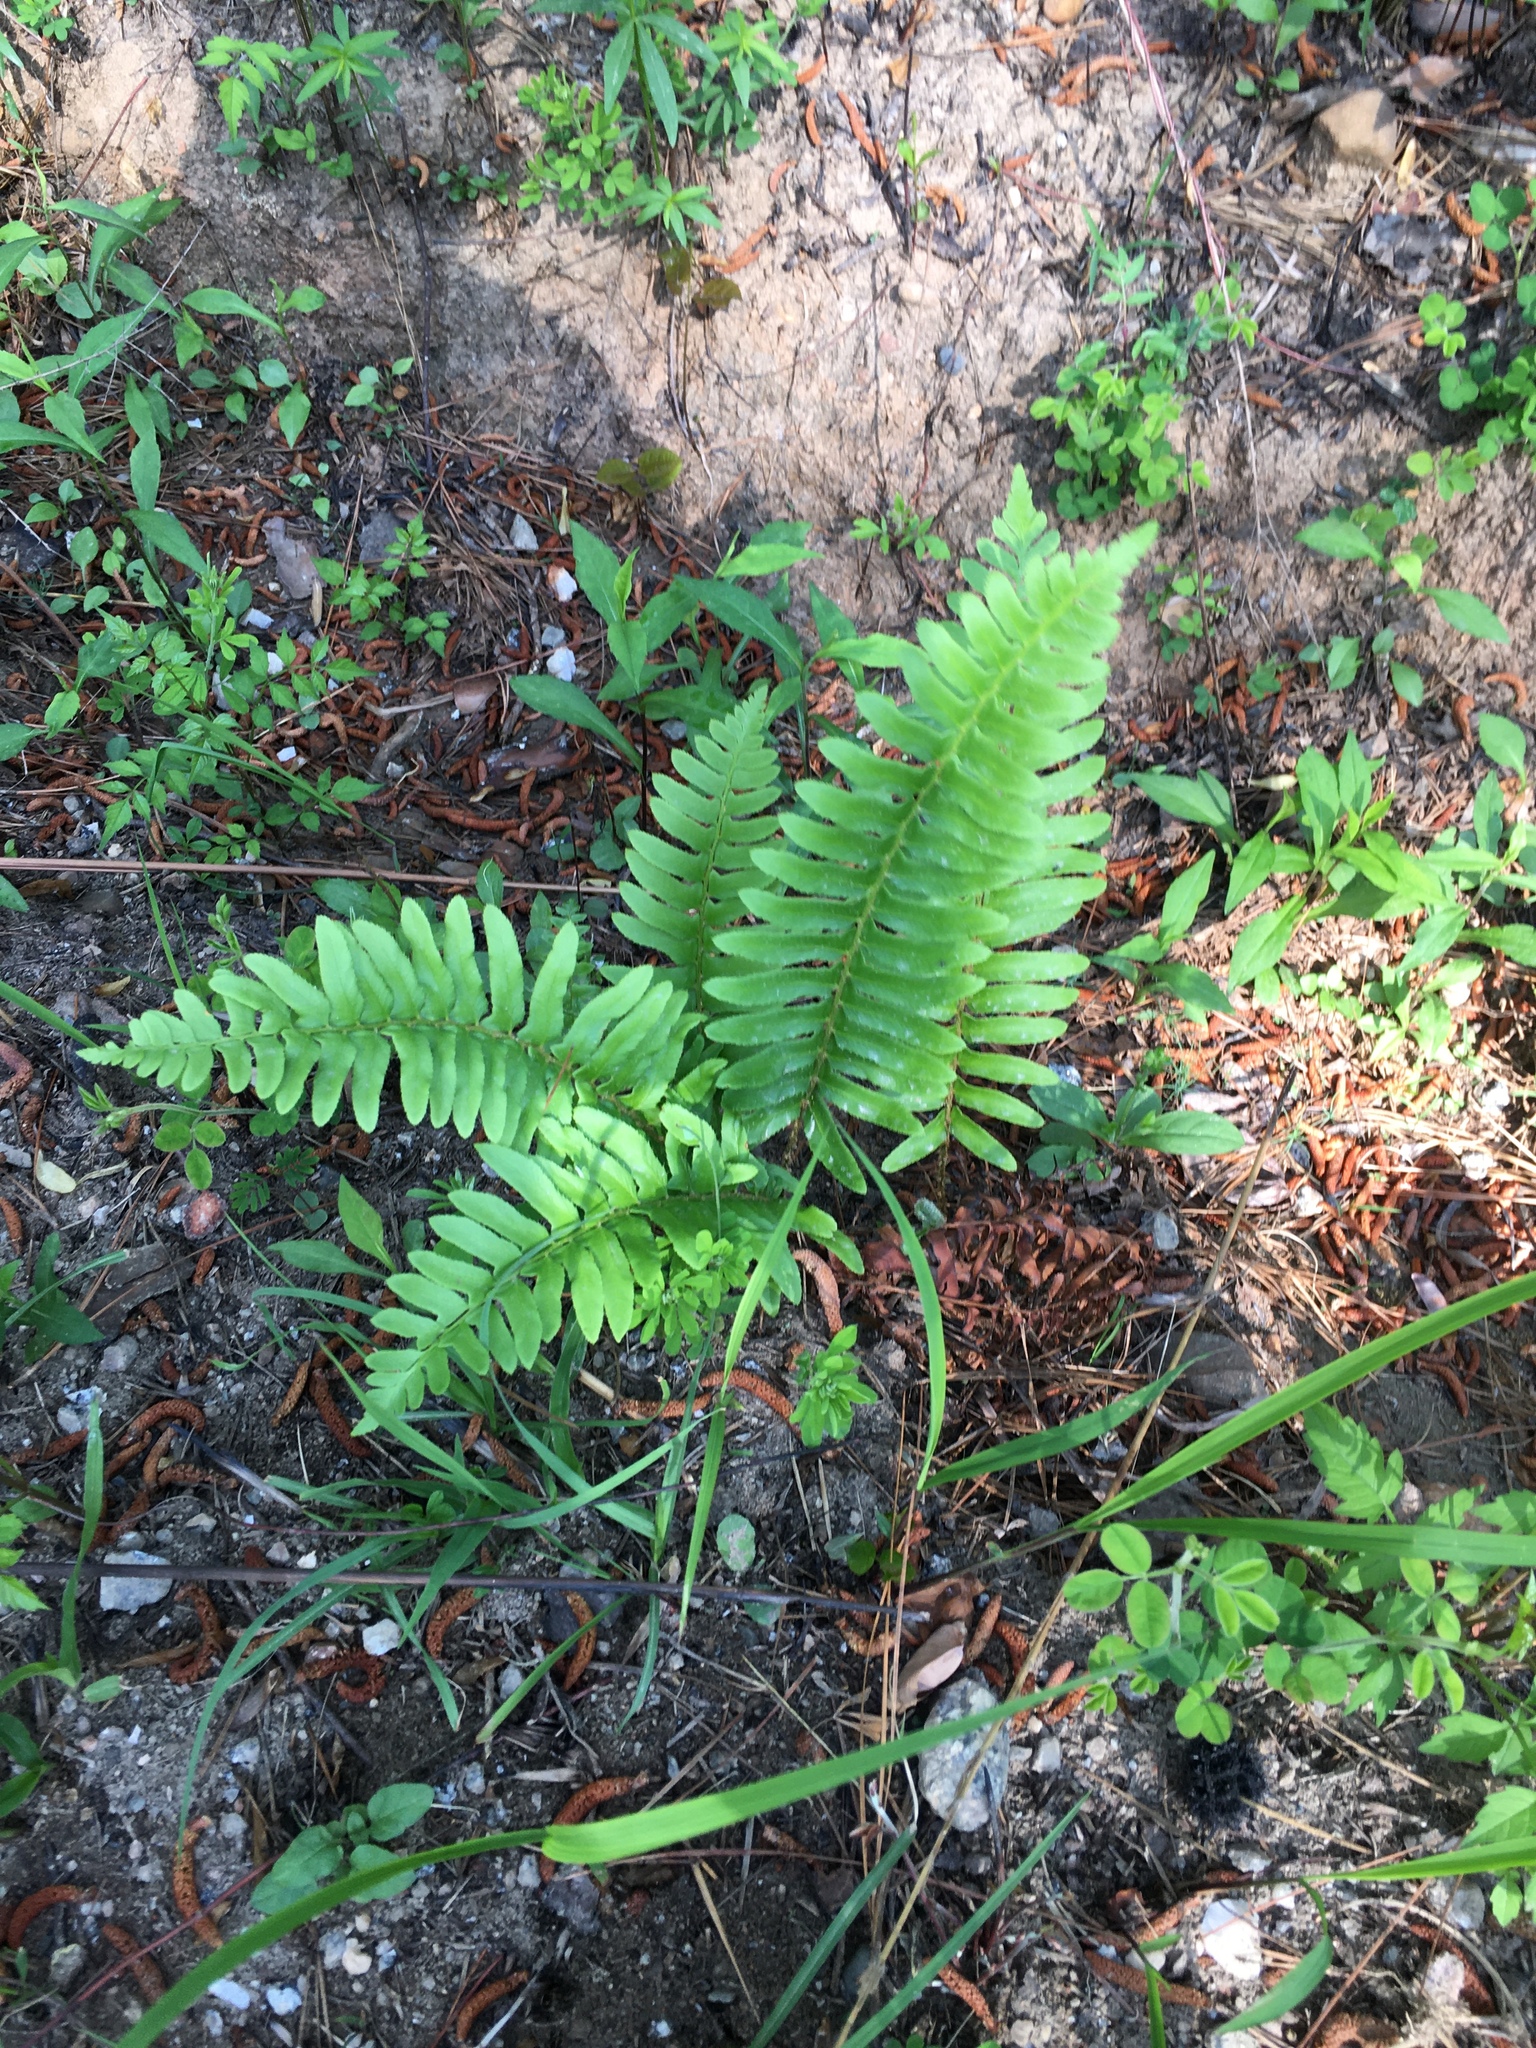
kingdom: Plantae
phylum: Tracheophyta
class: Polypodiopsida
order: Polypodiales
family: Dryopteridaceae
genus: Polystichum
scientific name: Polystichum acrostichoides
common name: Christmas fern
